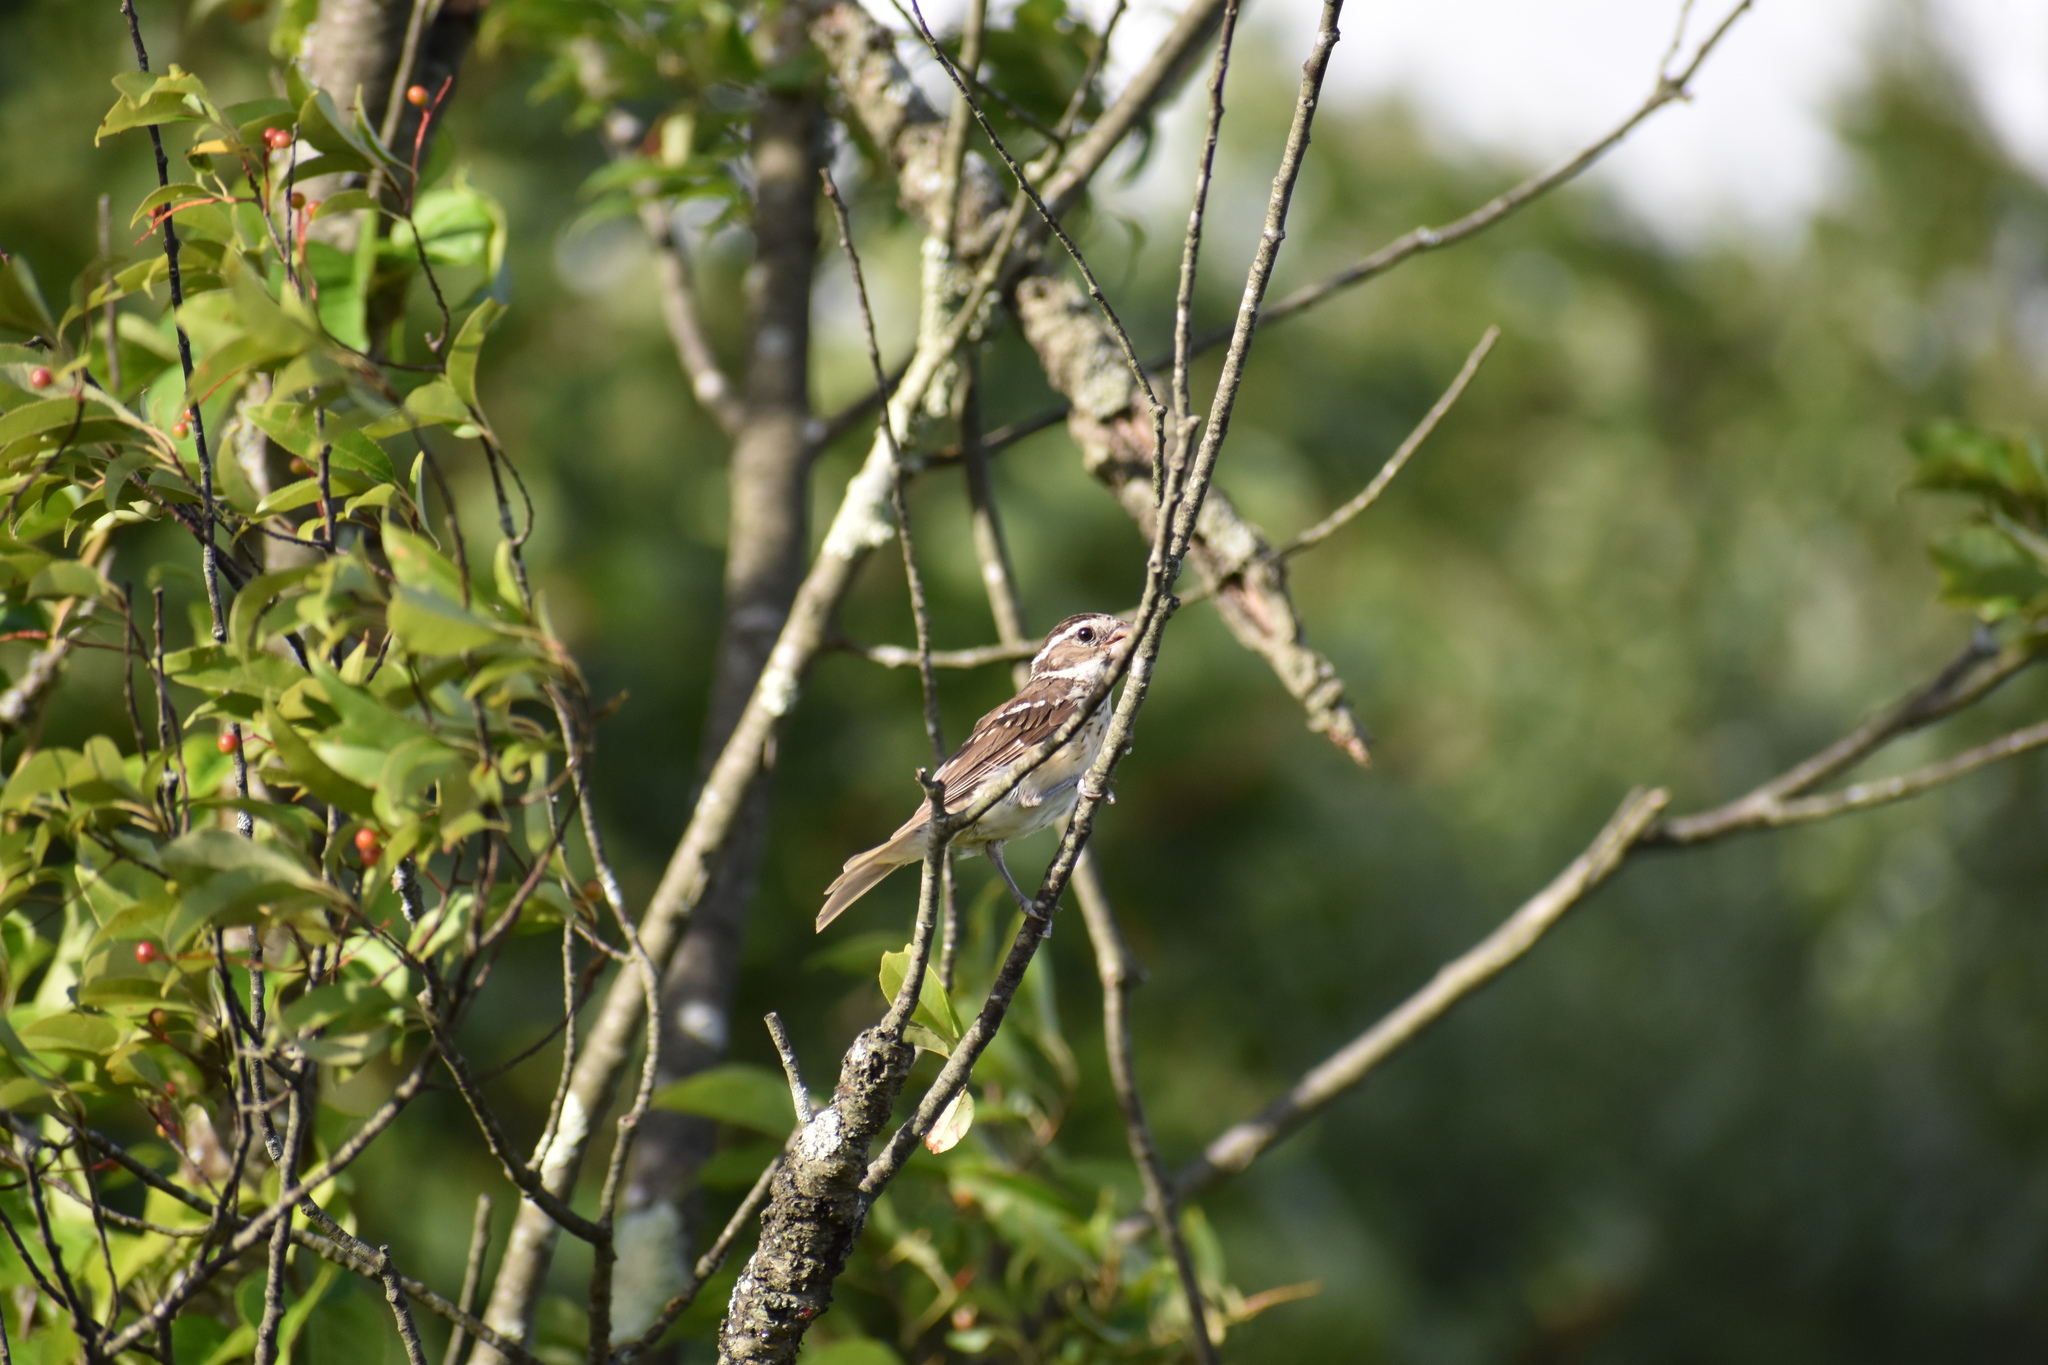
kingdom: Animalia
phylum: Chordata
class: Aves
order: Passeriformes
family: Cardinalidae
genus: Pheucticus
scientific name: Pheucticus ludovicianus
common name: Rose-breasted grosbeak
